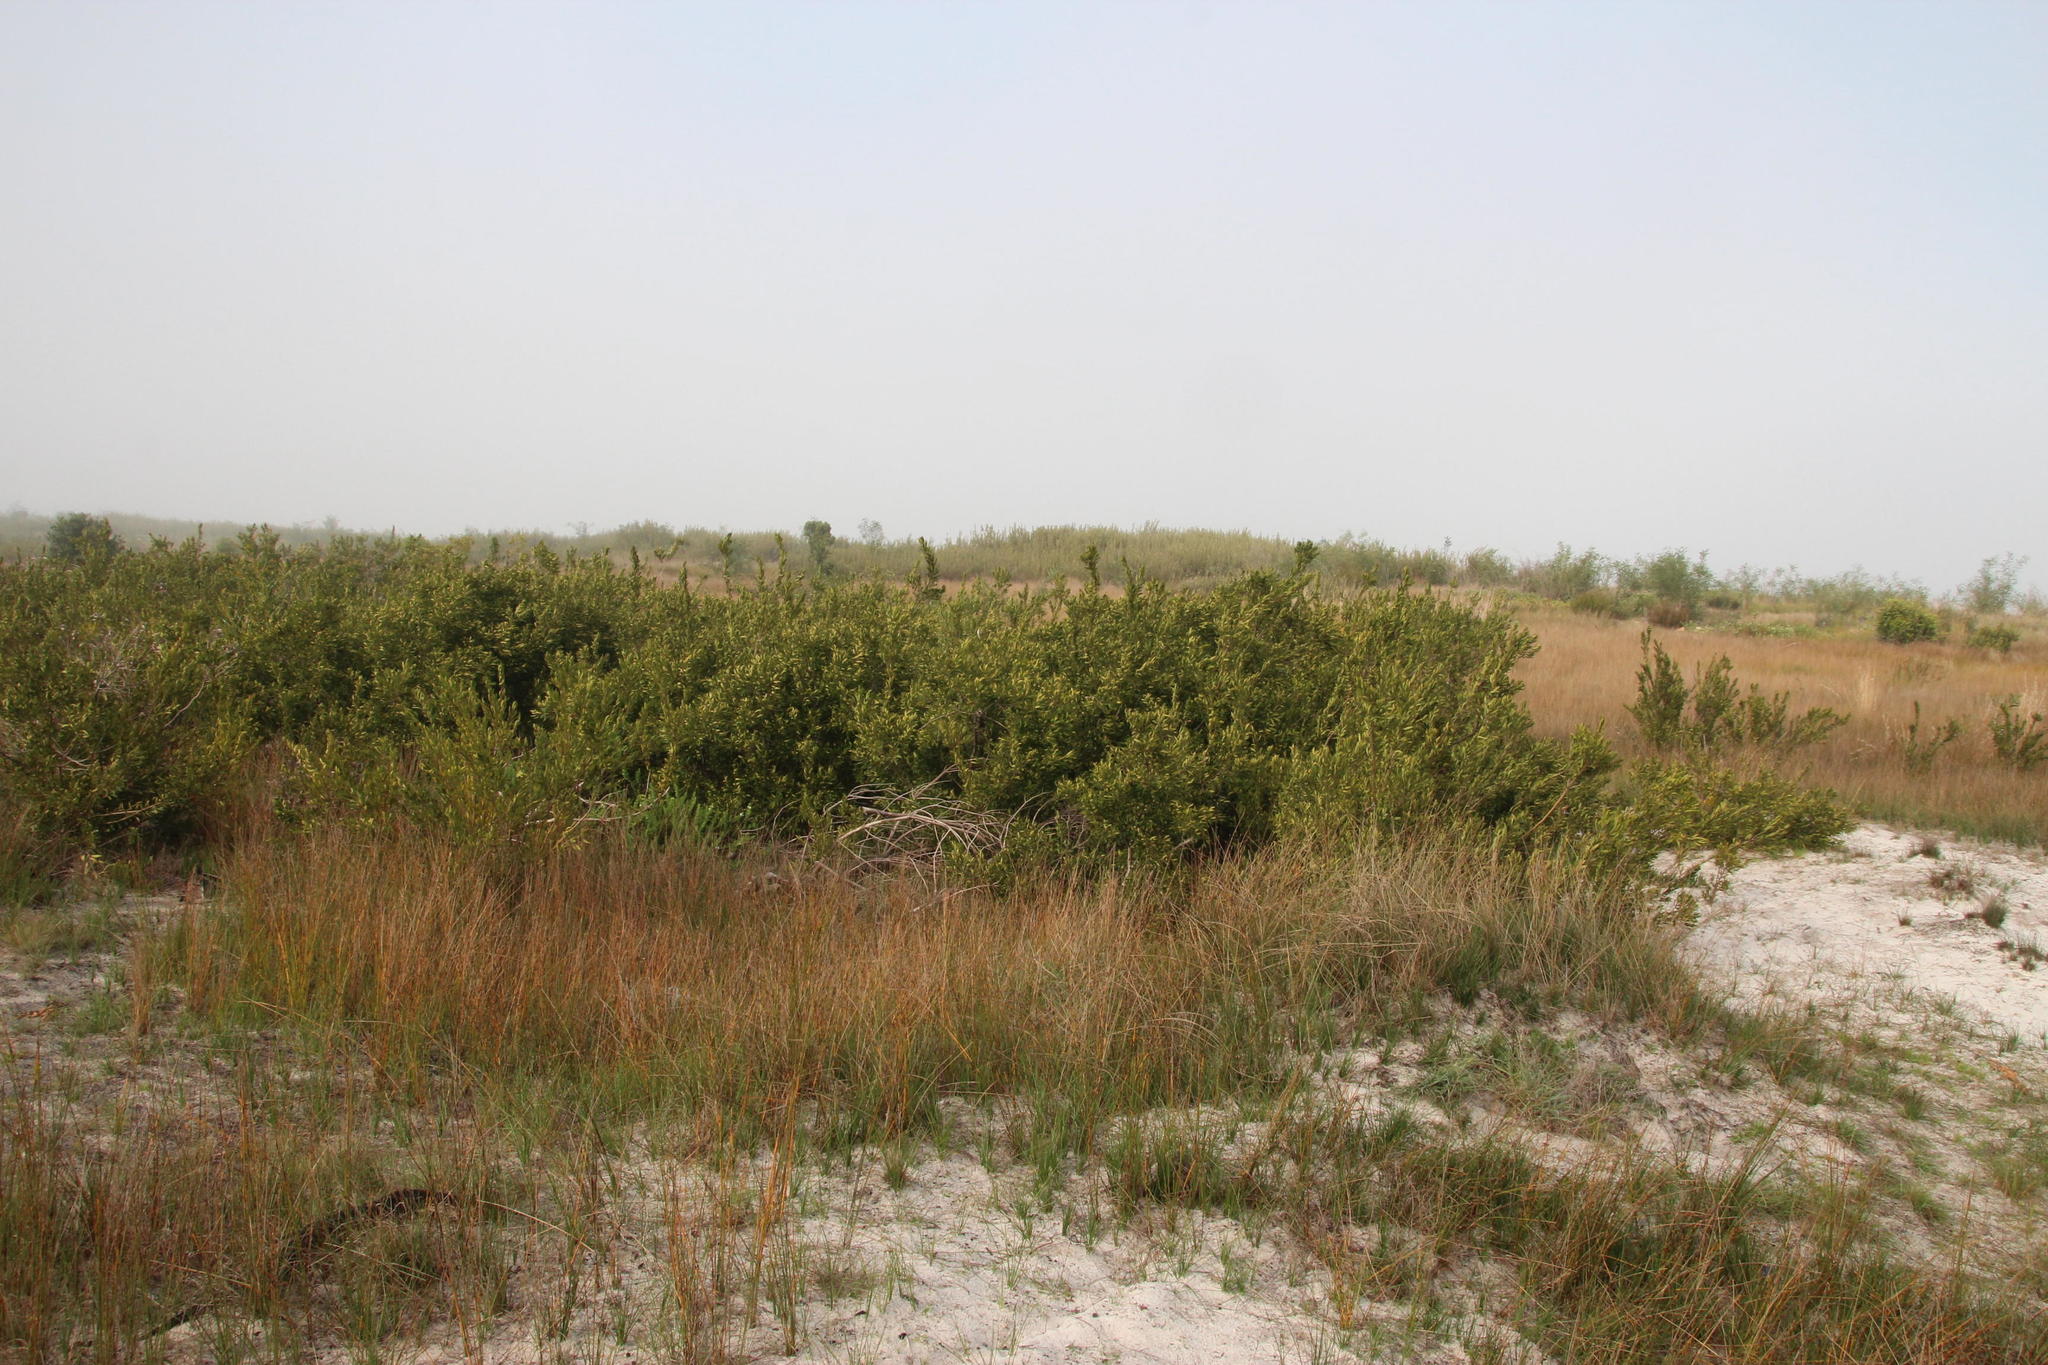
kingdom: Plantae
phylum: Tracheophyta
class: Magnoliopsida
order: Asterales
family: Asteraceae
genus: Brachylaena
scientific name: Brachylaena neriifolia
